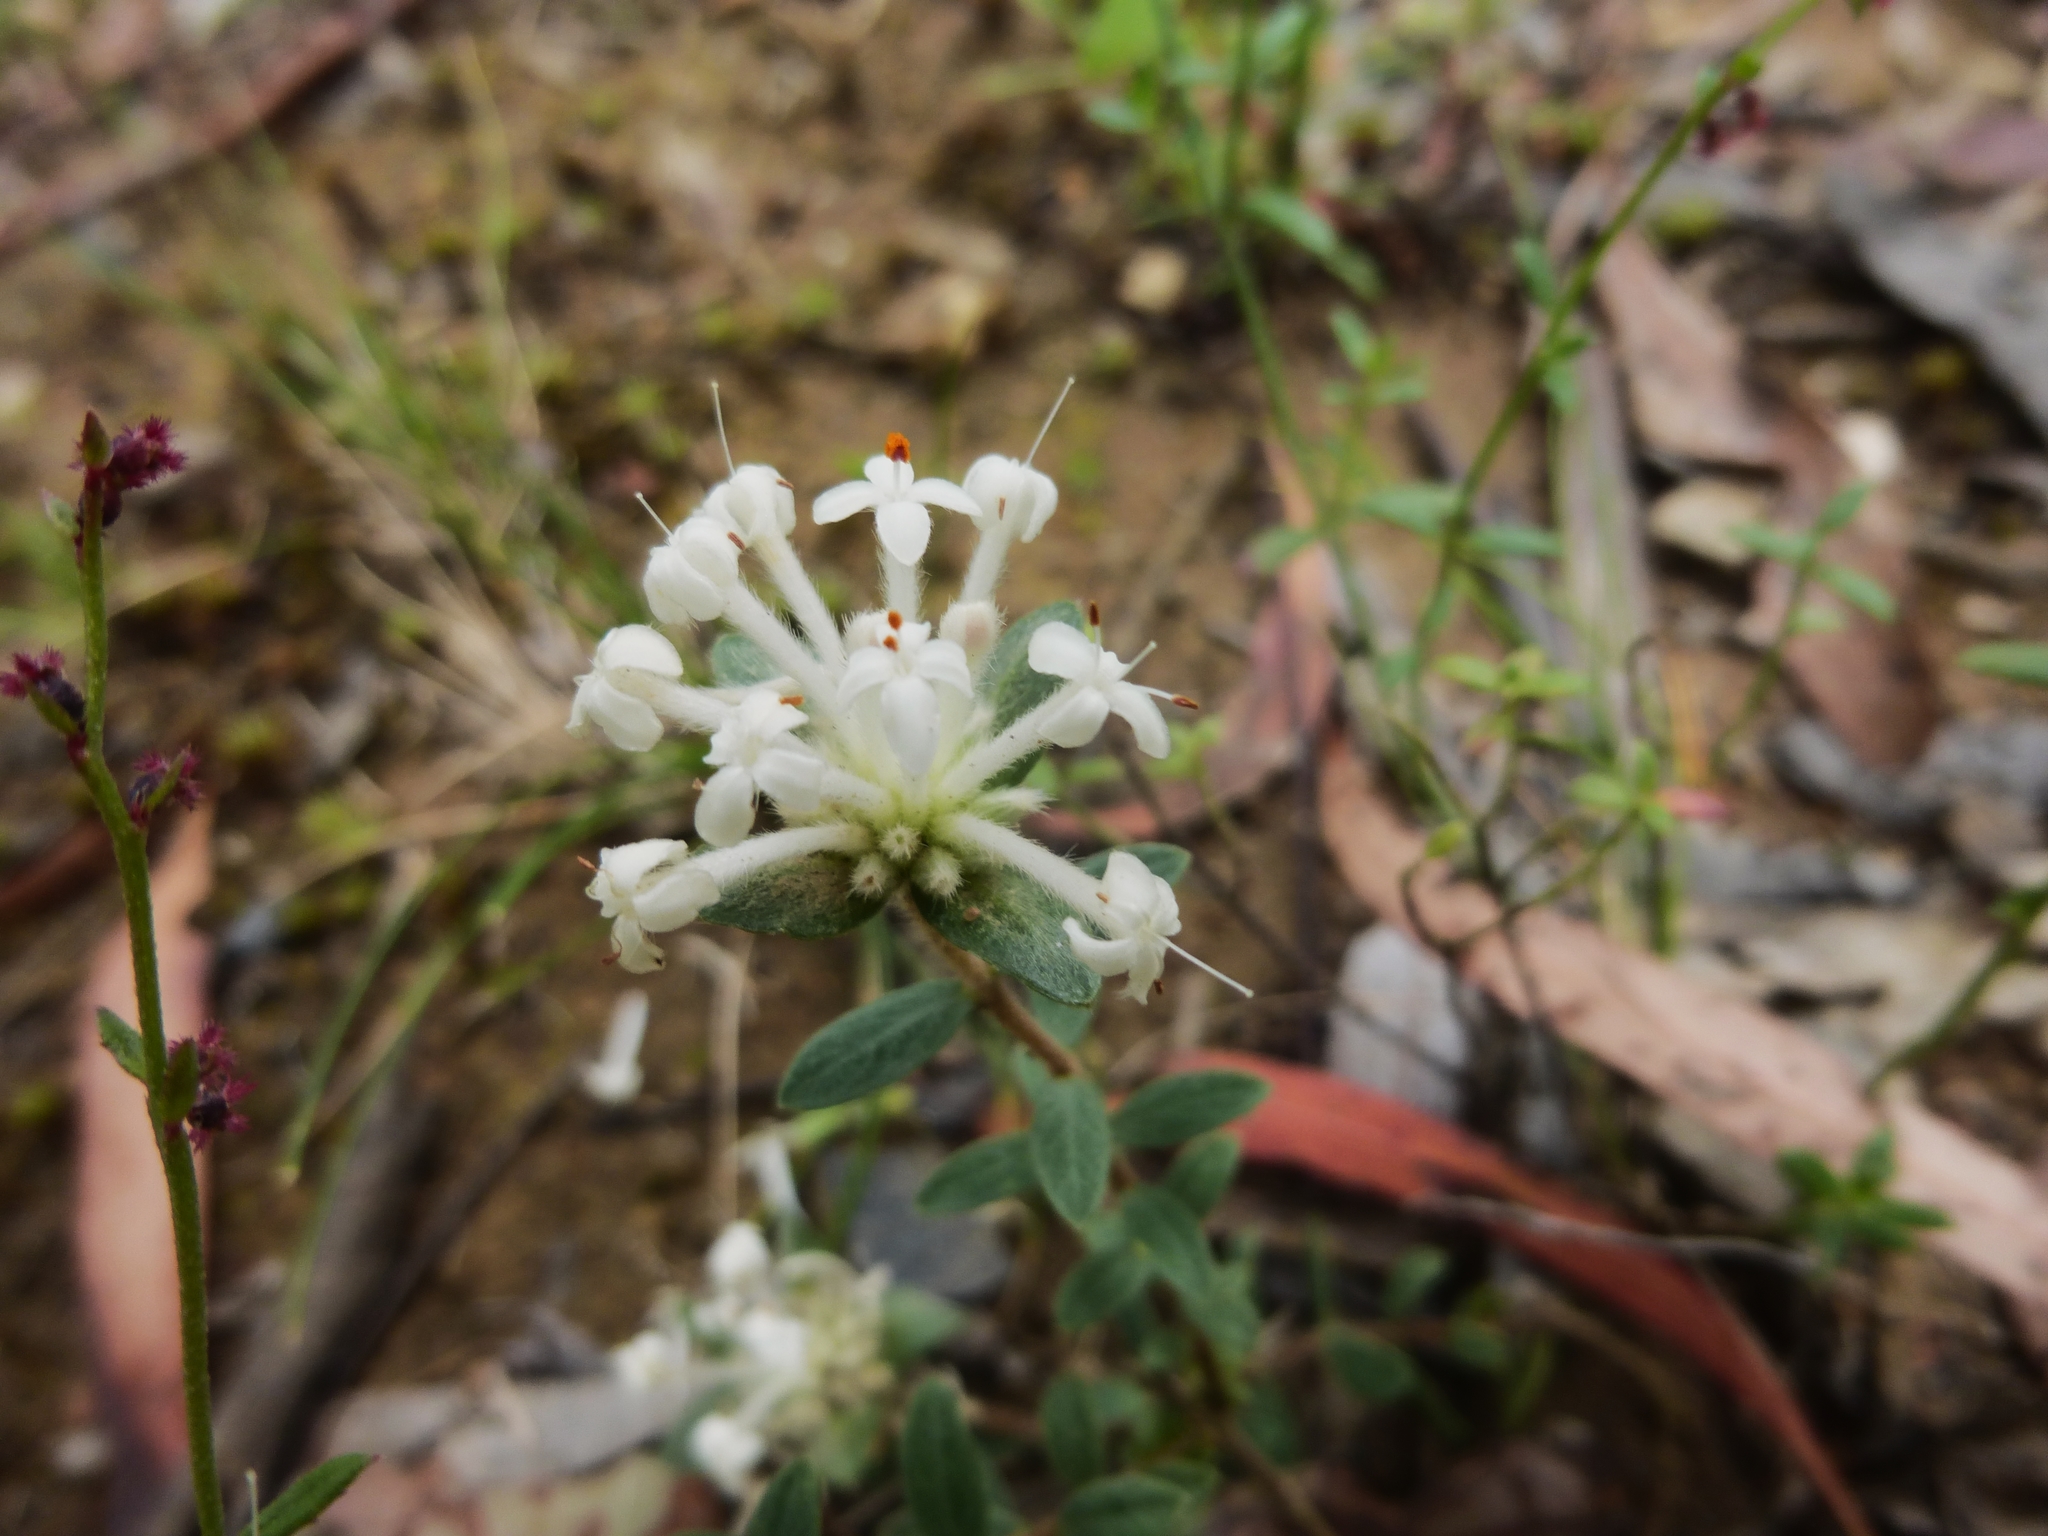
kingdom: Plantae
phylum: Tracheophyta
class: Magnoliopsida
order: Malvales
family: Thymelaeaceae
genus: Pimelea
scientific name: Pimelea humilis
